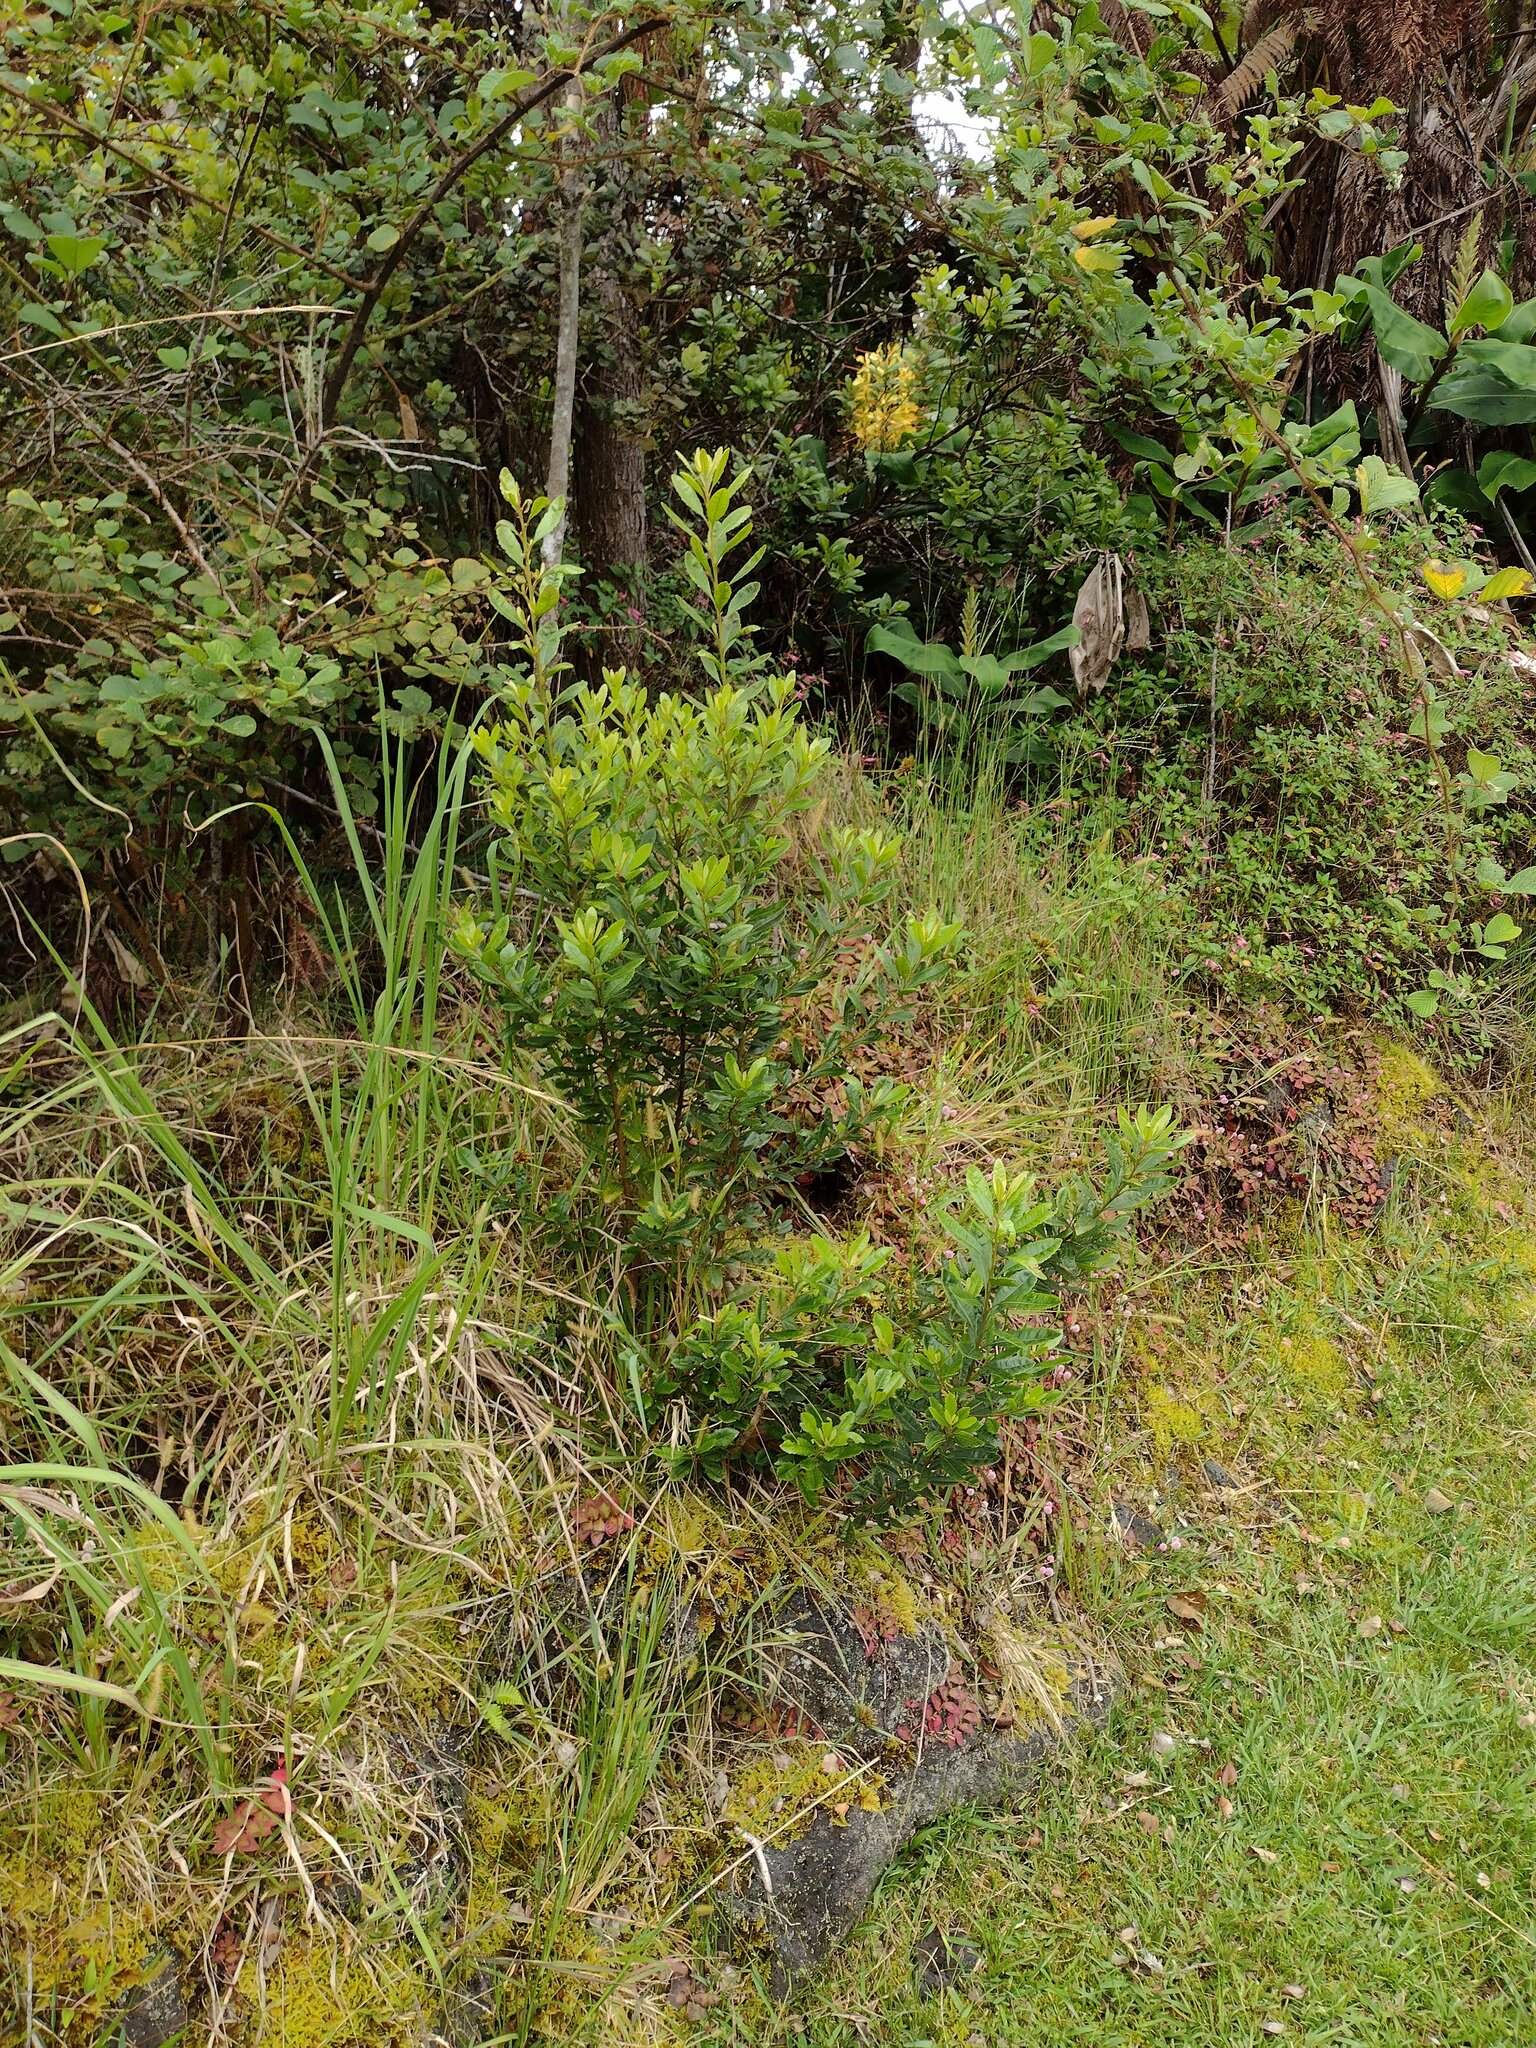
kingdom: Plantae
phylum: Tracheophyta
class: Magnoliopsida
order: Fagales
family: Myricaceae
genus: Morella
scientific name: Morella faya
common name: Firetree
